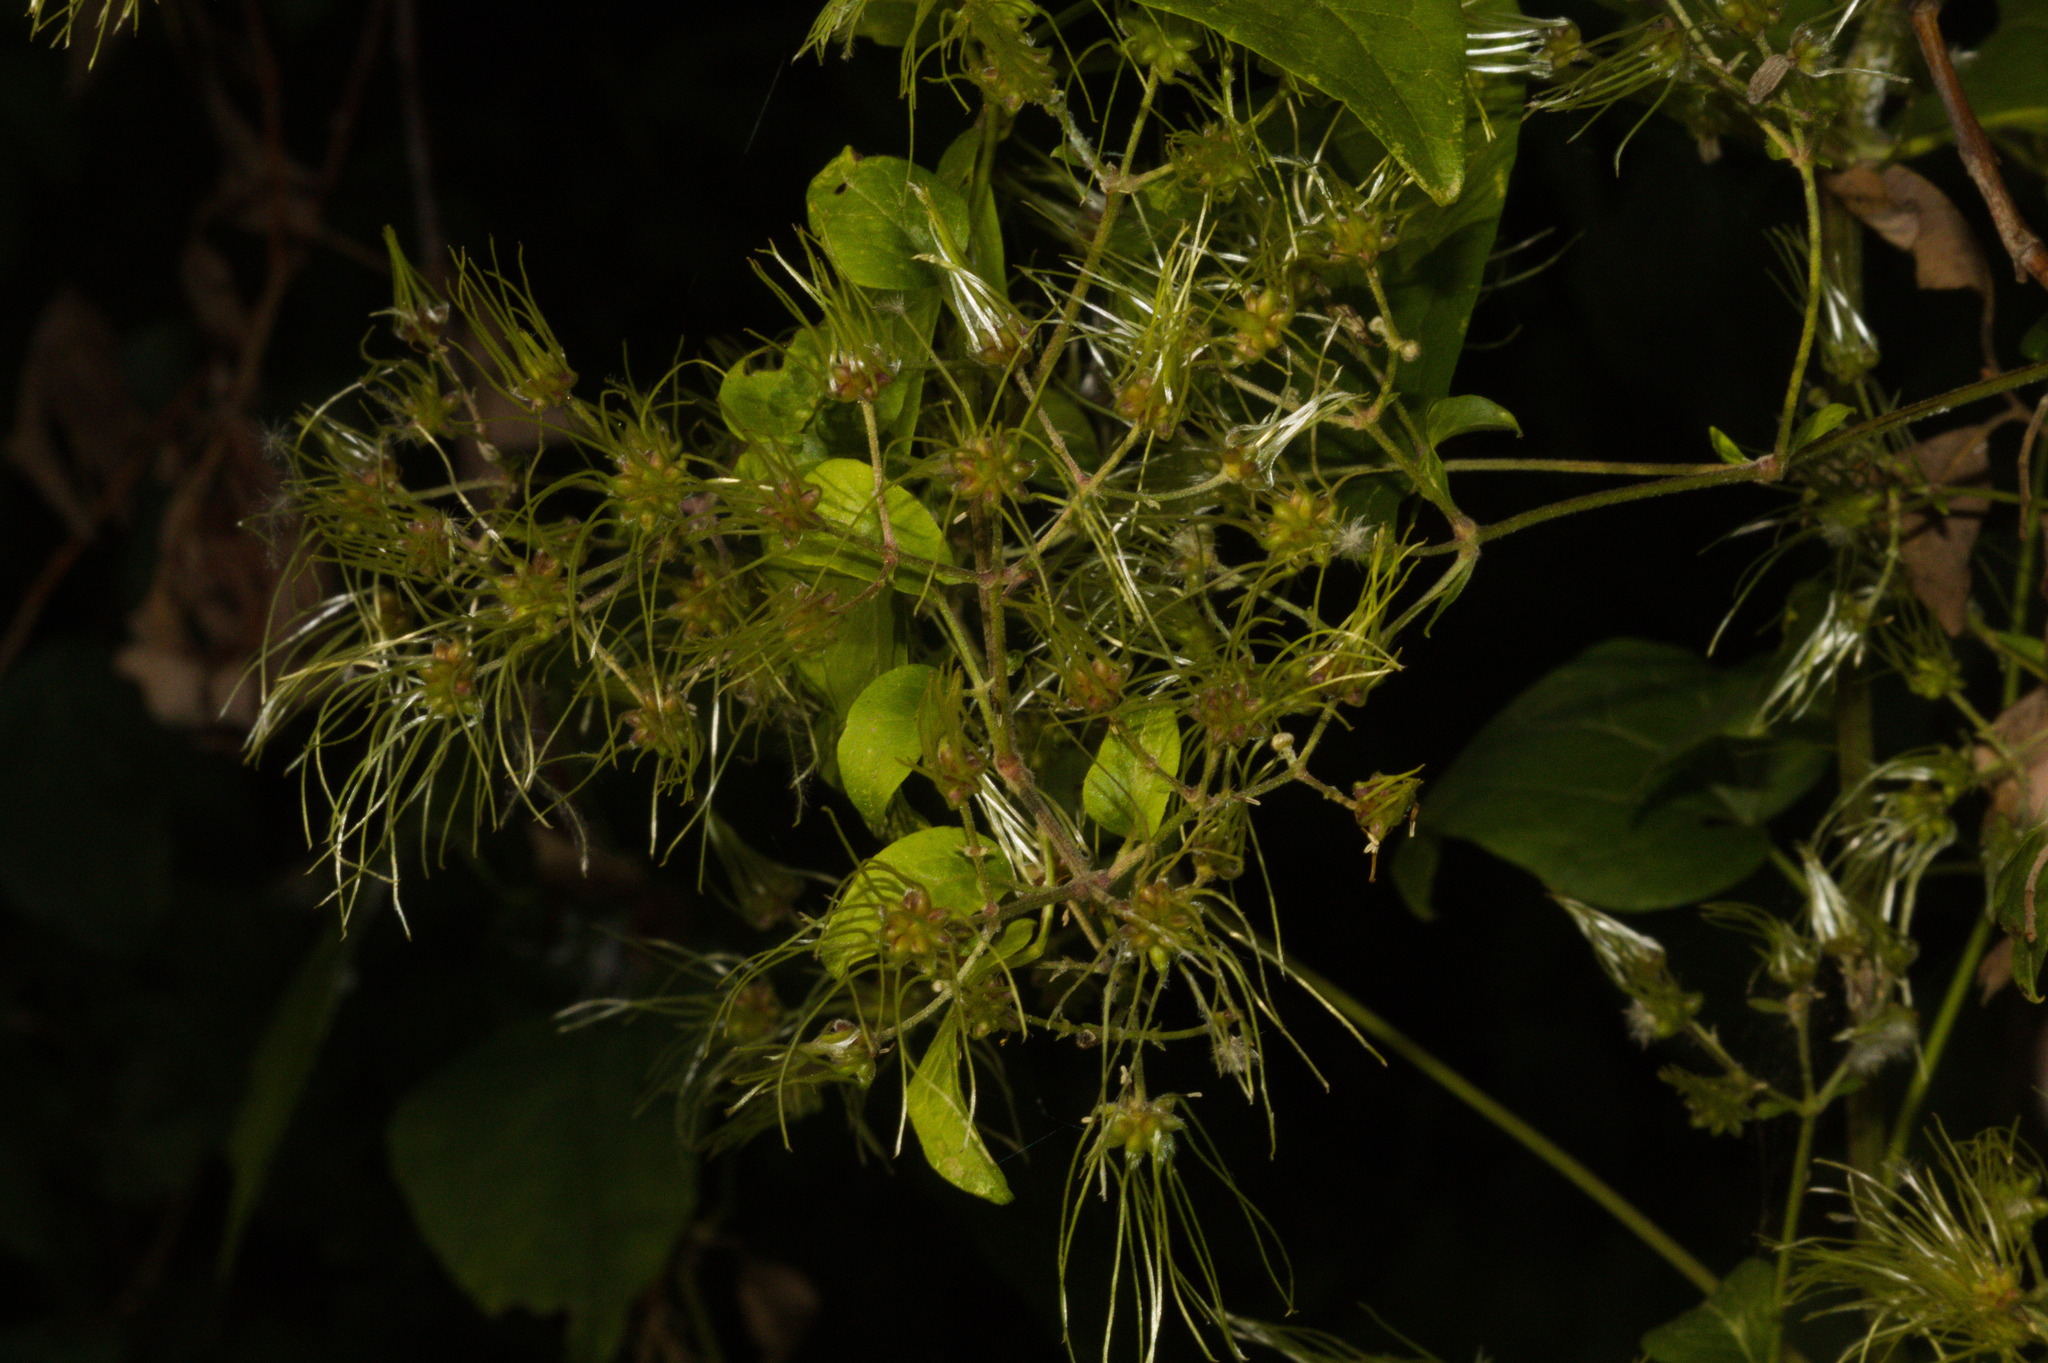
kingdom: Plantae
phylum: Tracheophyta
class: Magnoliopsida
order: Ranunculales
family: Ranunculaceae
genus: Clematis
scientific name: Clematis vitalba
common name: Evergreen clematis
